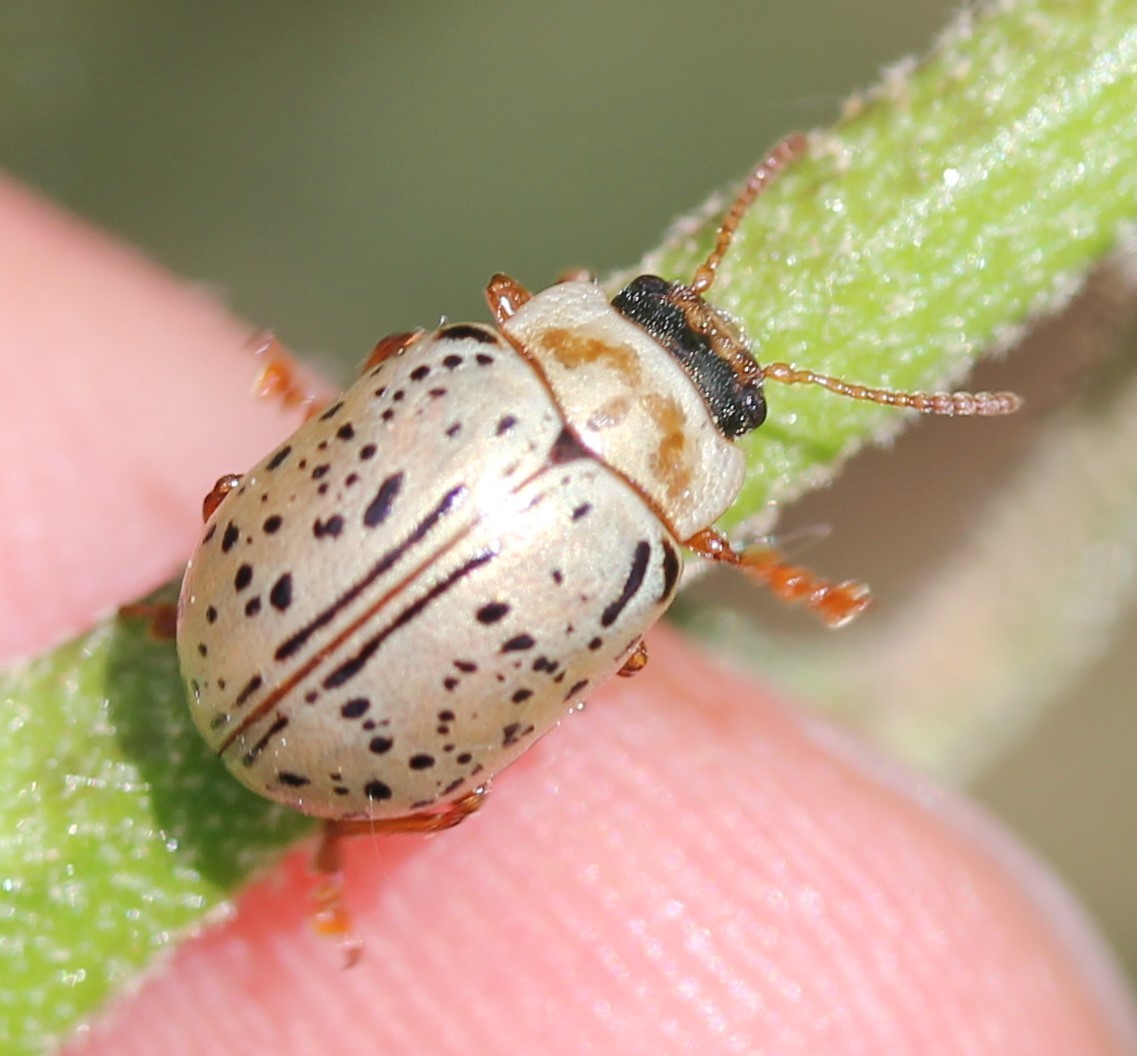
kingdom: Animalia
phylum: Arthropoda
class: Insecta
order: Coleoptera
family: Chrysomelidae
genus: Calligrapha
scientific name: Calligrapha multipunctata
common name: Common willow calligrapher beetle
